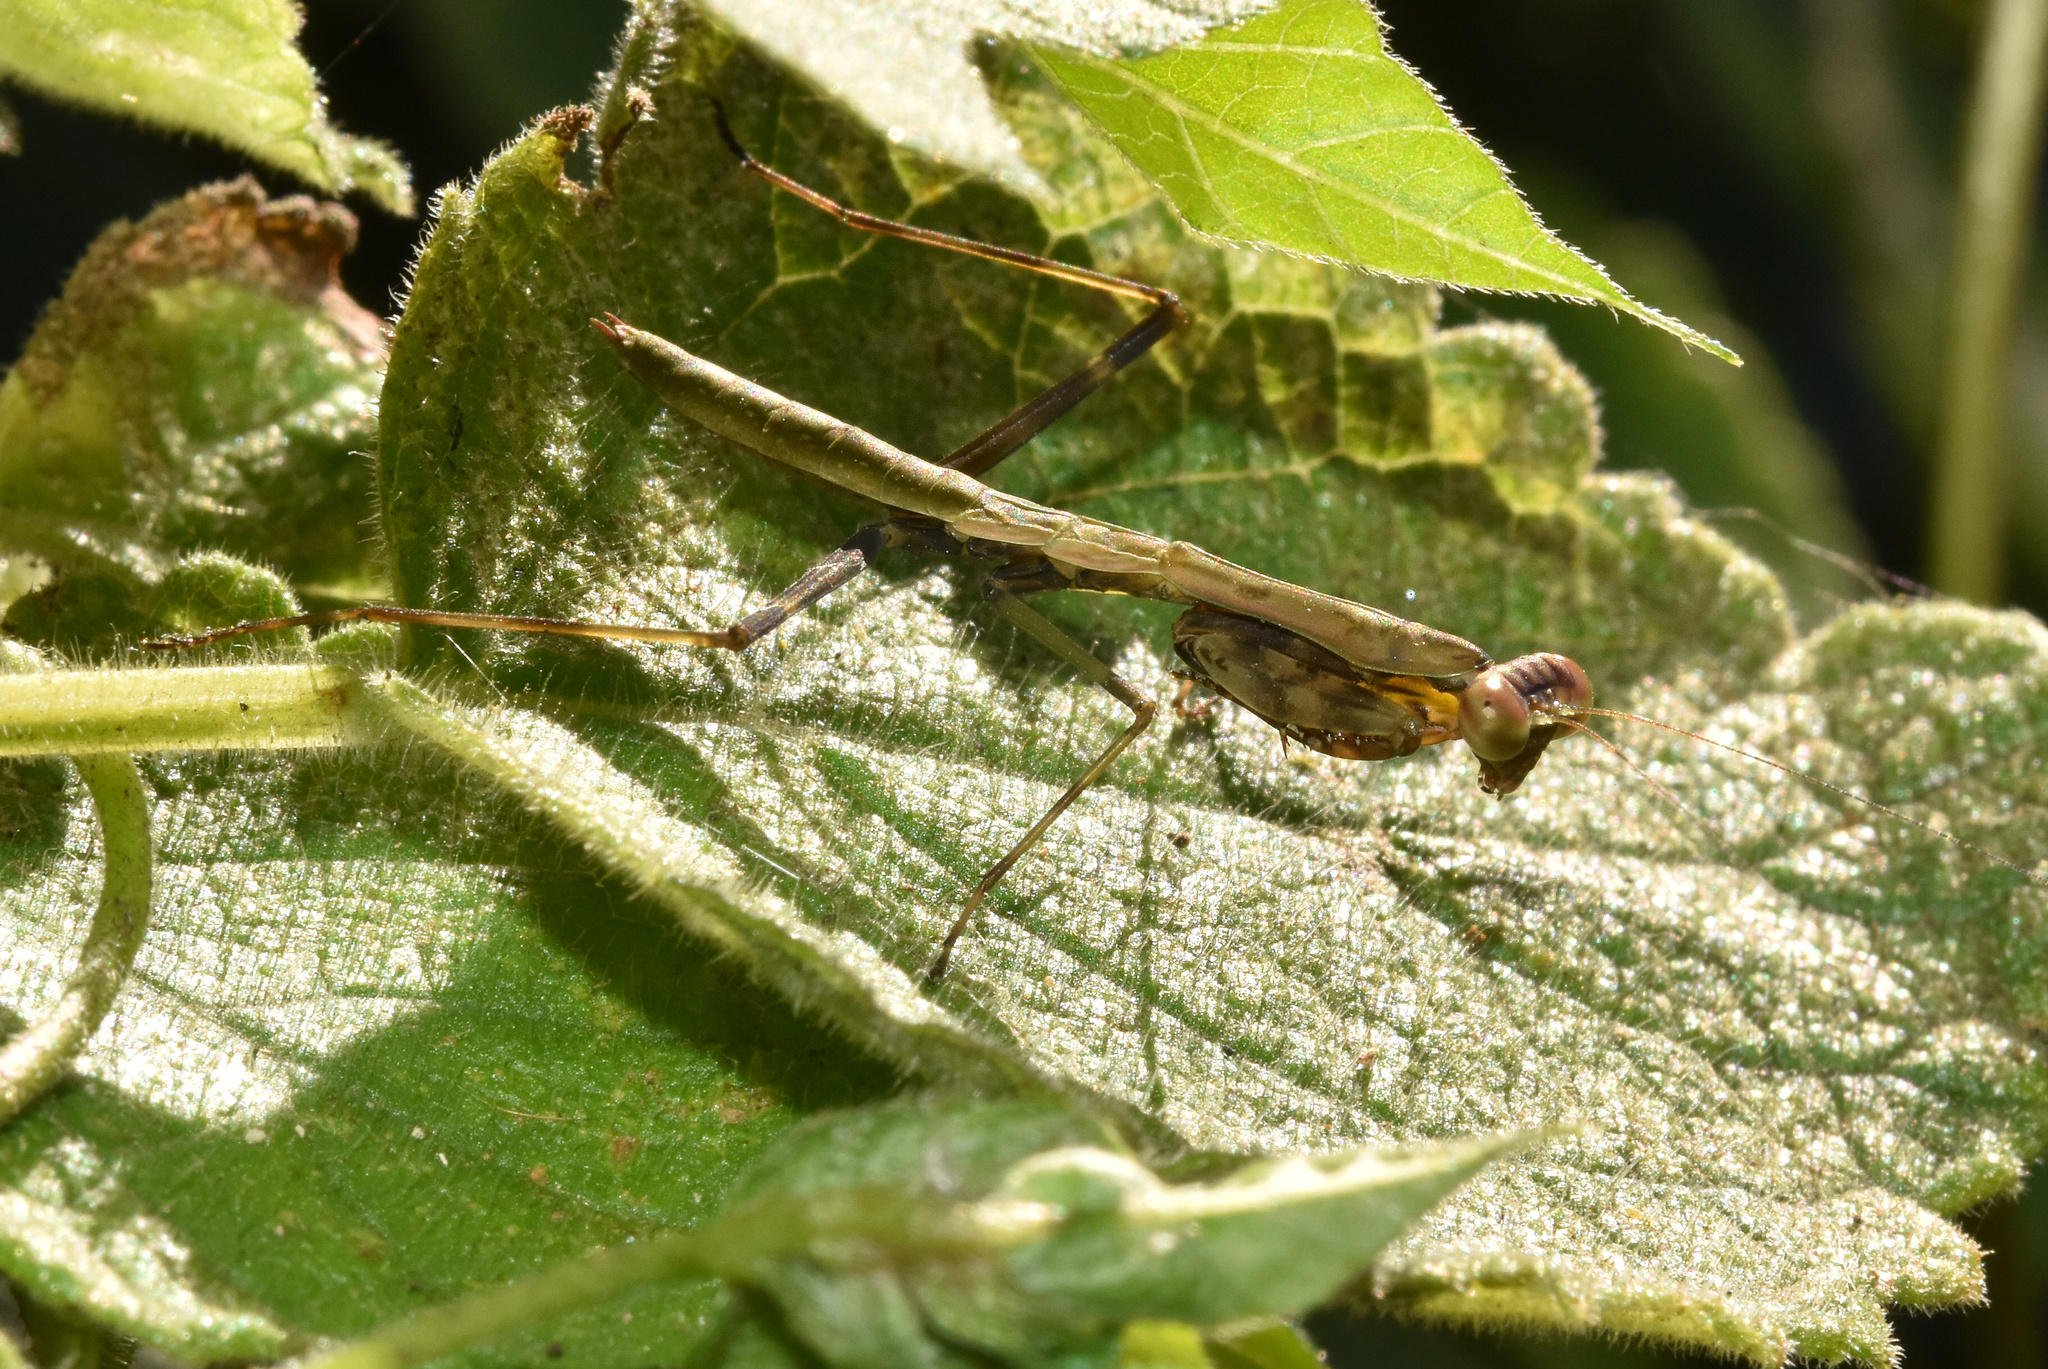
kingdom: Animalia
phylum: Arthropoda
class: Insecta
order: Mantodea
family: Mantidae
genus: Polyspilota
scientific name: Polyspilota aeruginosa
